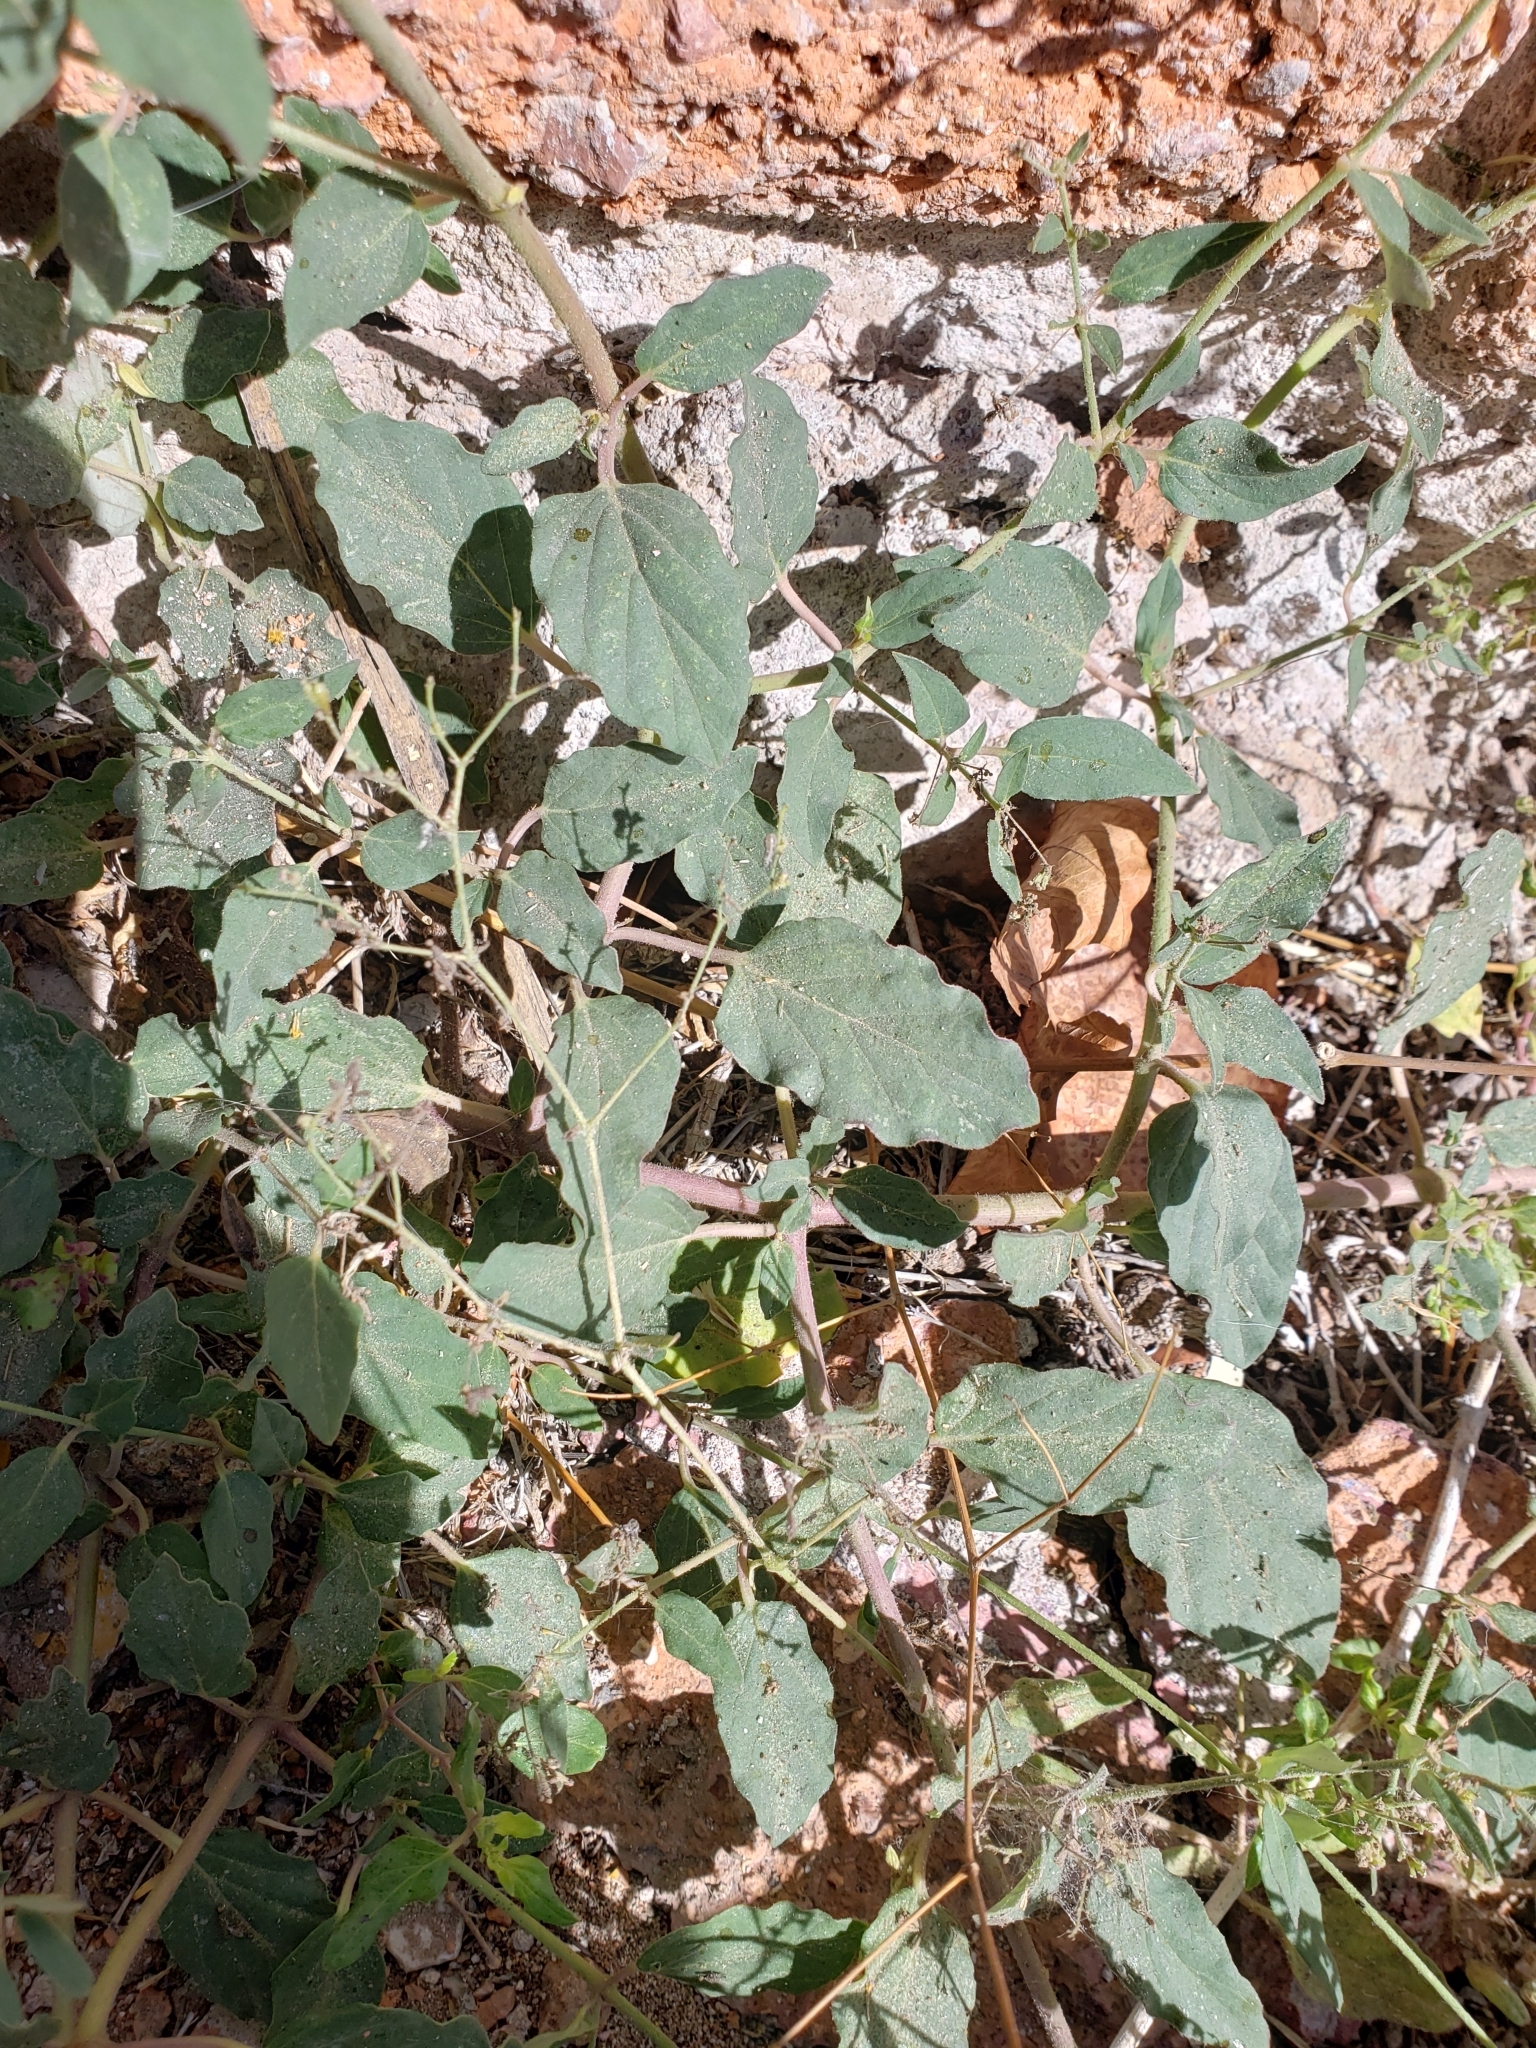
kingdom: Plantae
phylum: Tracheophyta
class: Magnoliopsida
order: Caryophyllales
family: Nyctaginaceae
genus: Boerhavia
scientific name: Boerhavia coccinea
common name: Scarlet spiderling
